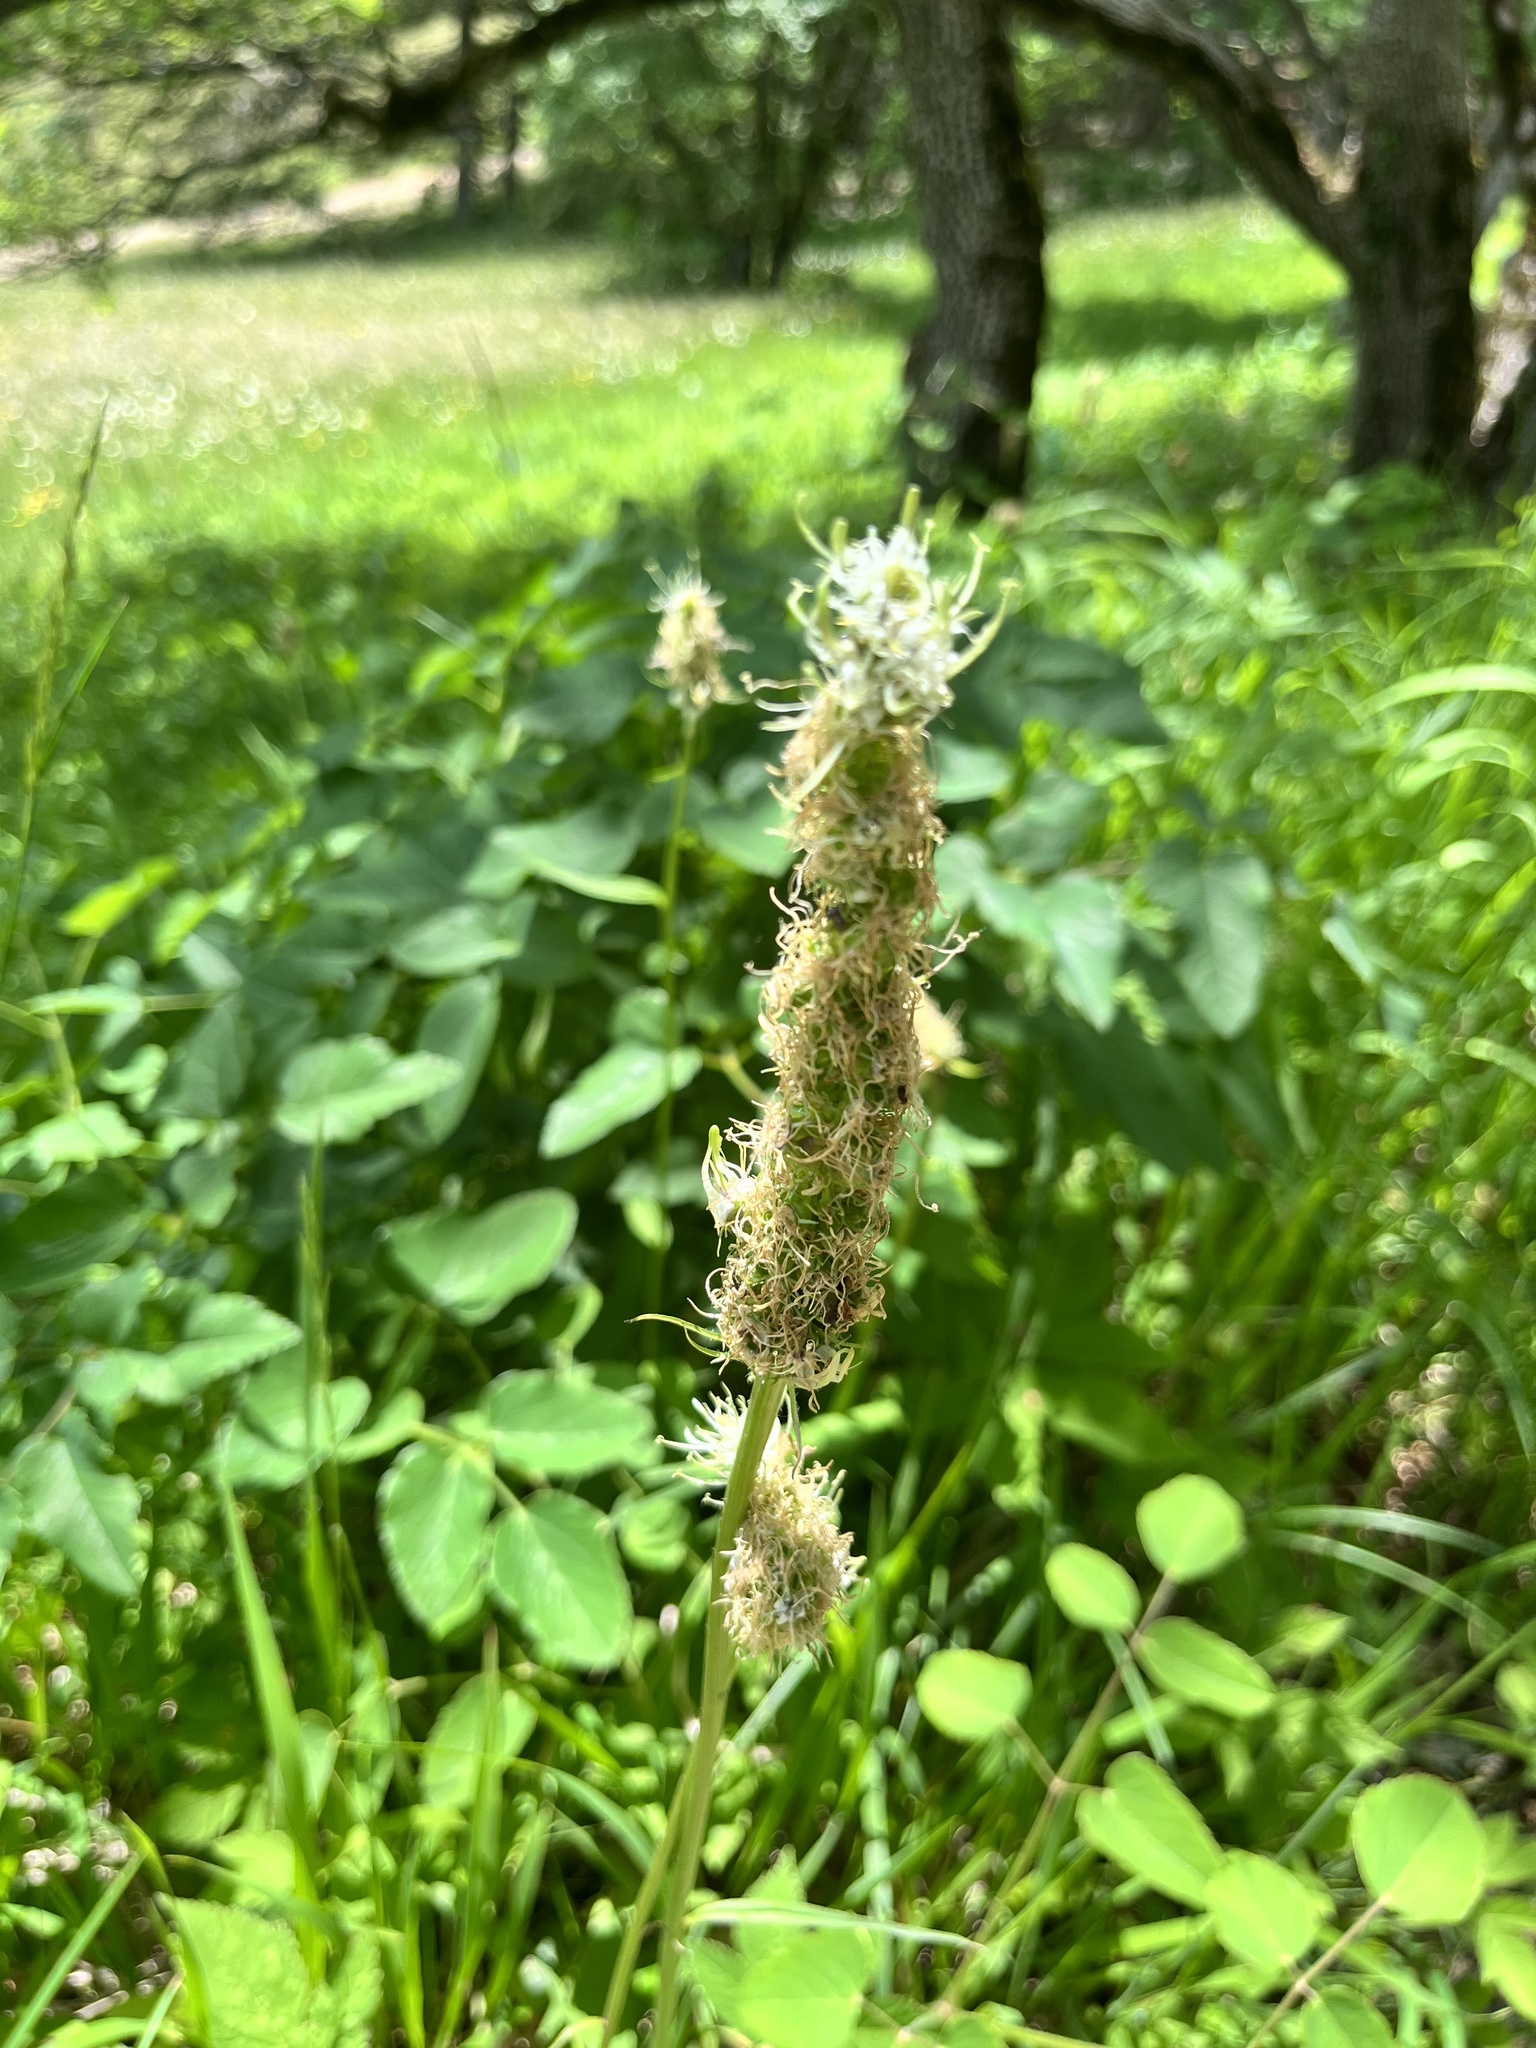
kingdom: Plantae
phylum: Tracheophyta
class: Magnoliopsida
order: Asterales
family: Campanulaceae
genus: Phyteuma
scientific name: Phyteuma spicatum
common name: Spiked rampion
